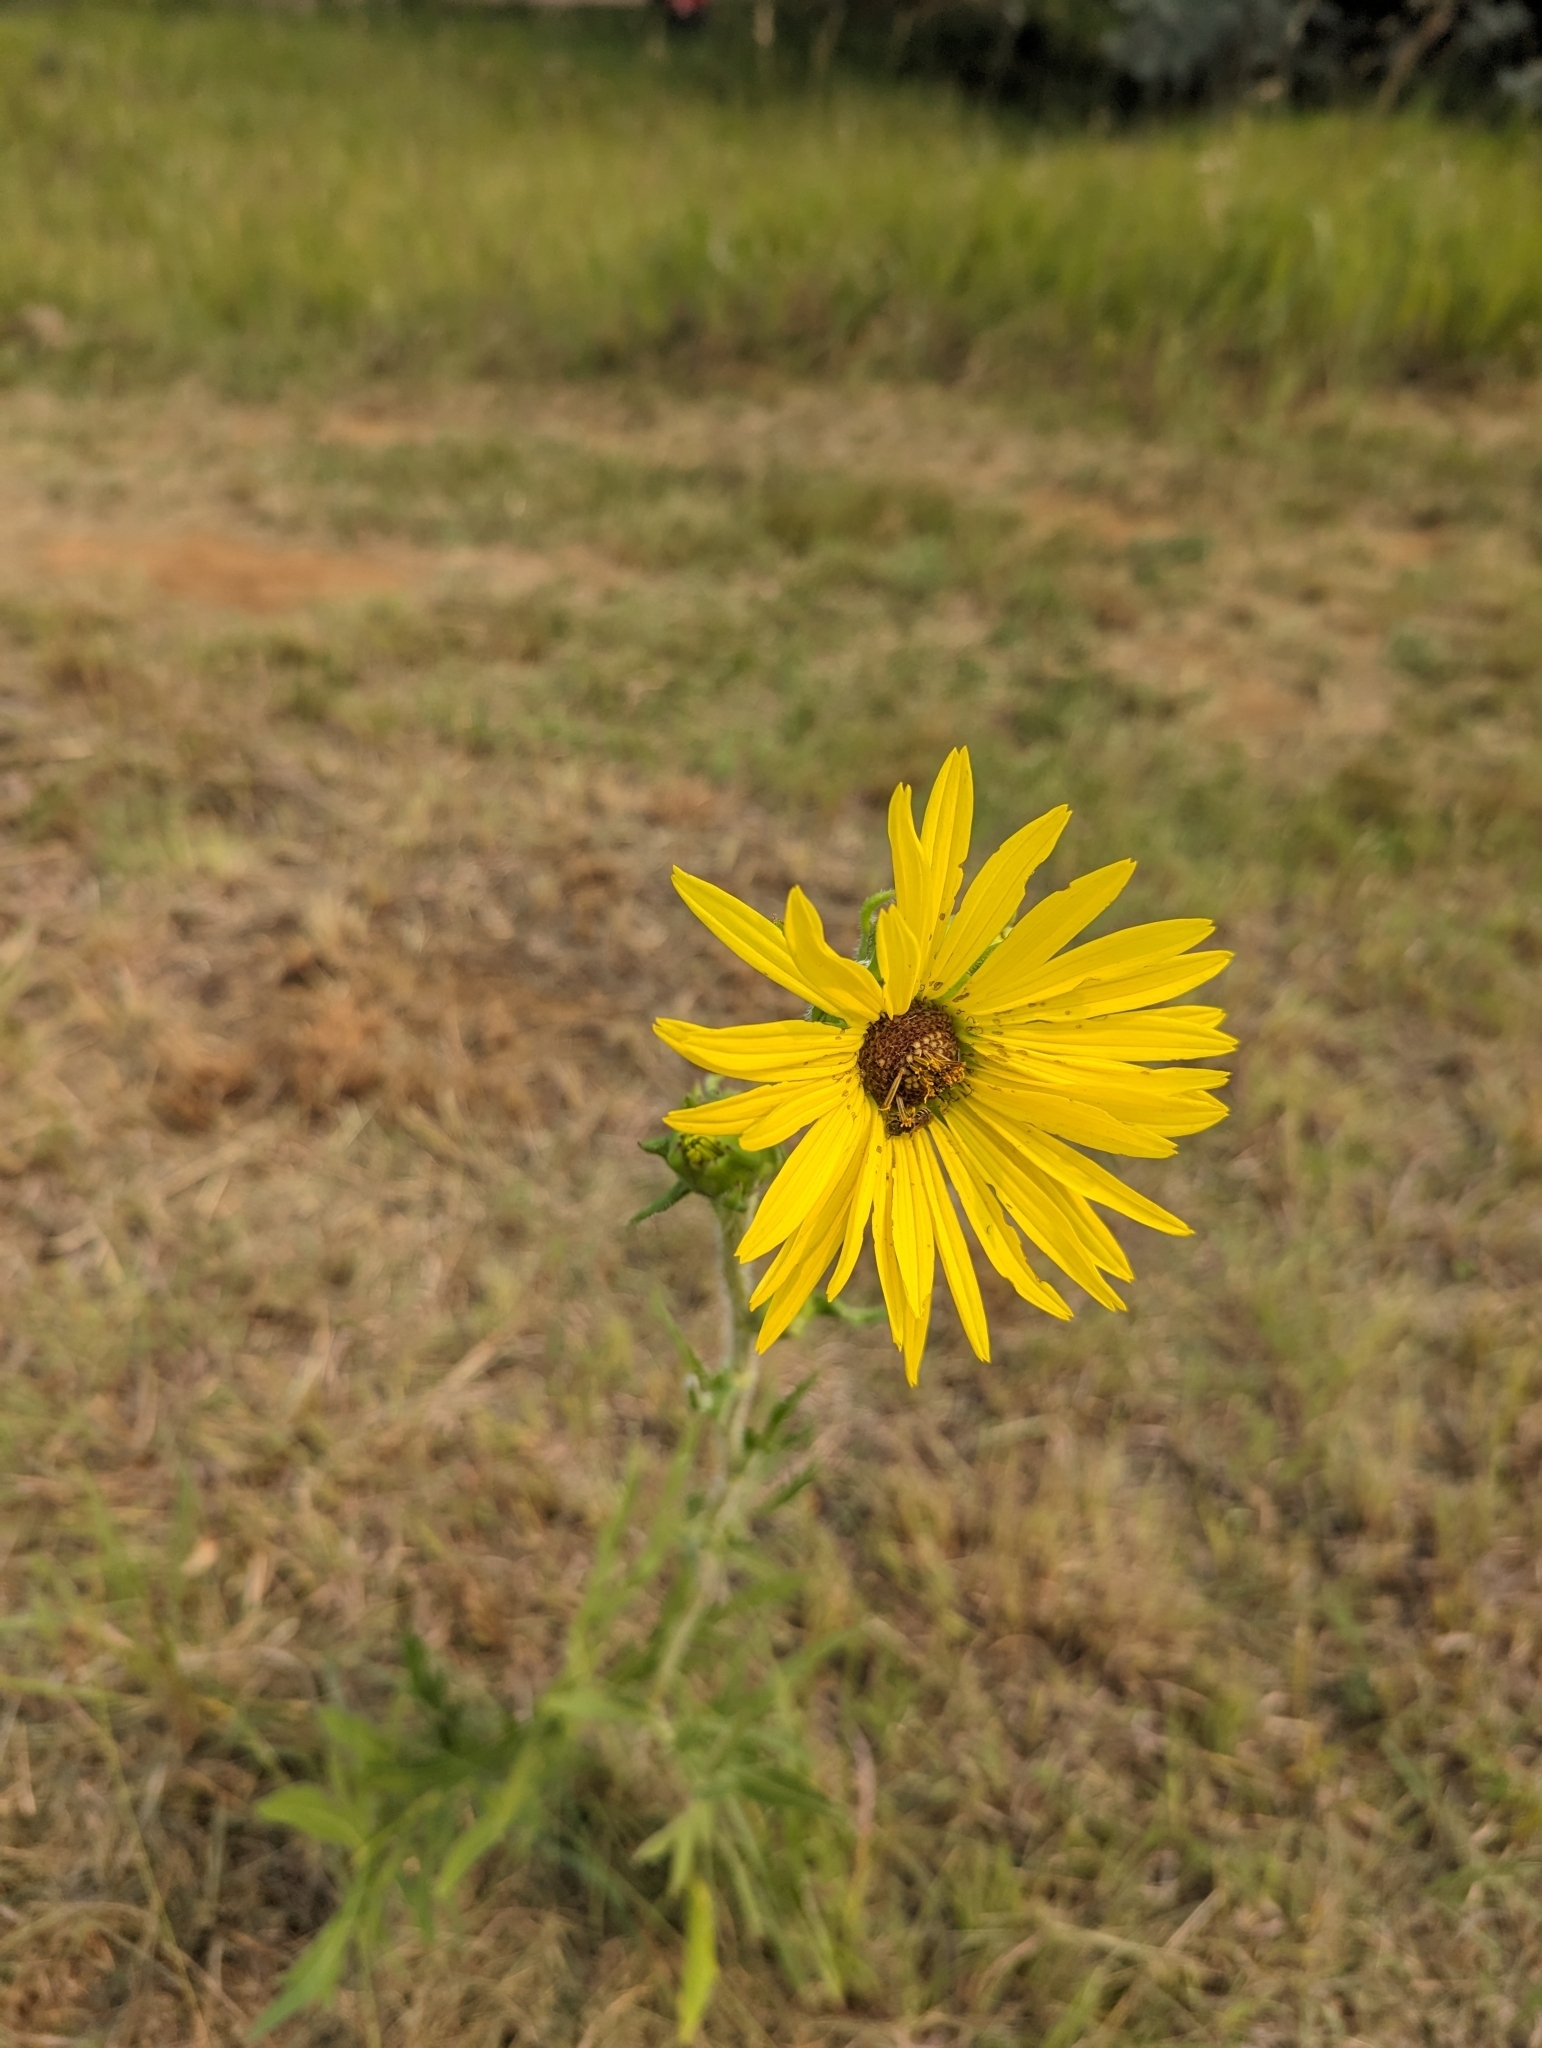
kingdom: Plantae
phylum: Tracheophyta
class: Magnoliopsida
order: Asterales
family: Asteraceae
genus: Silphium
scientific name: Silphium laciniatum
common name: Polarplant
